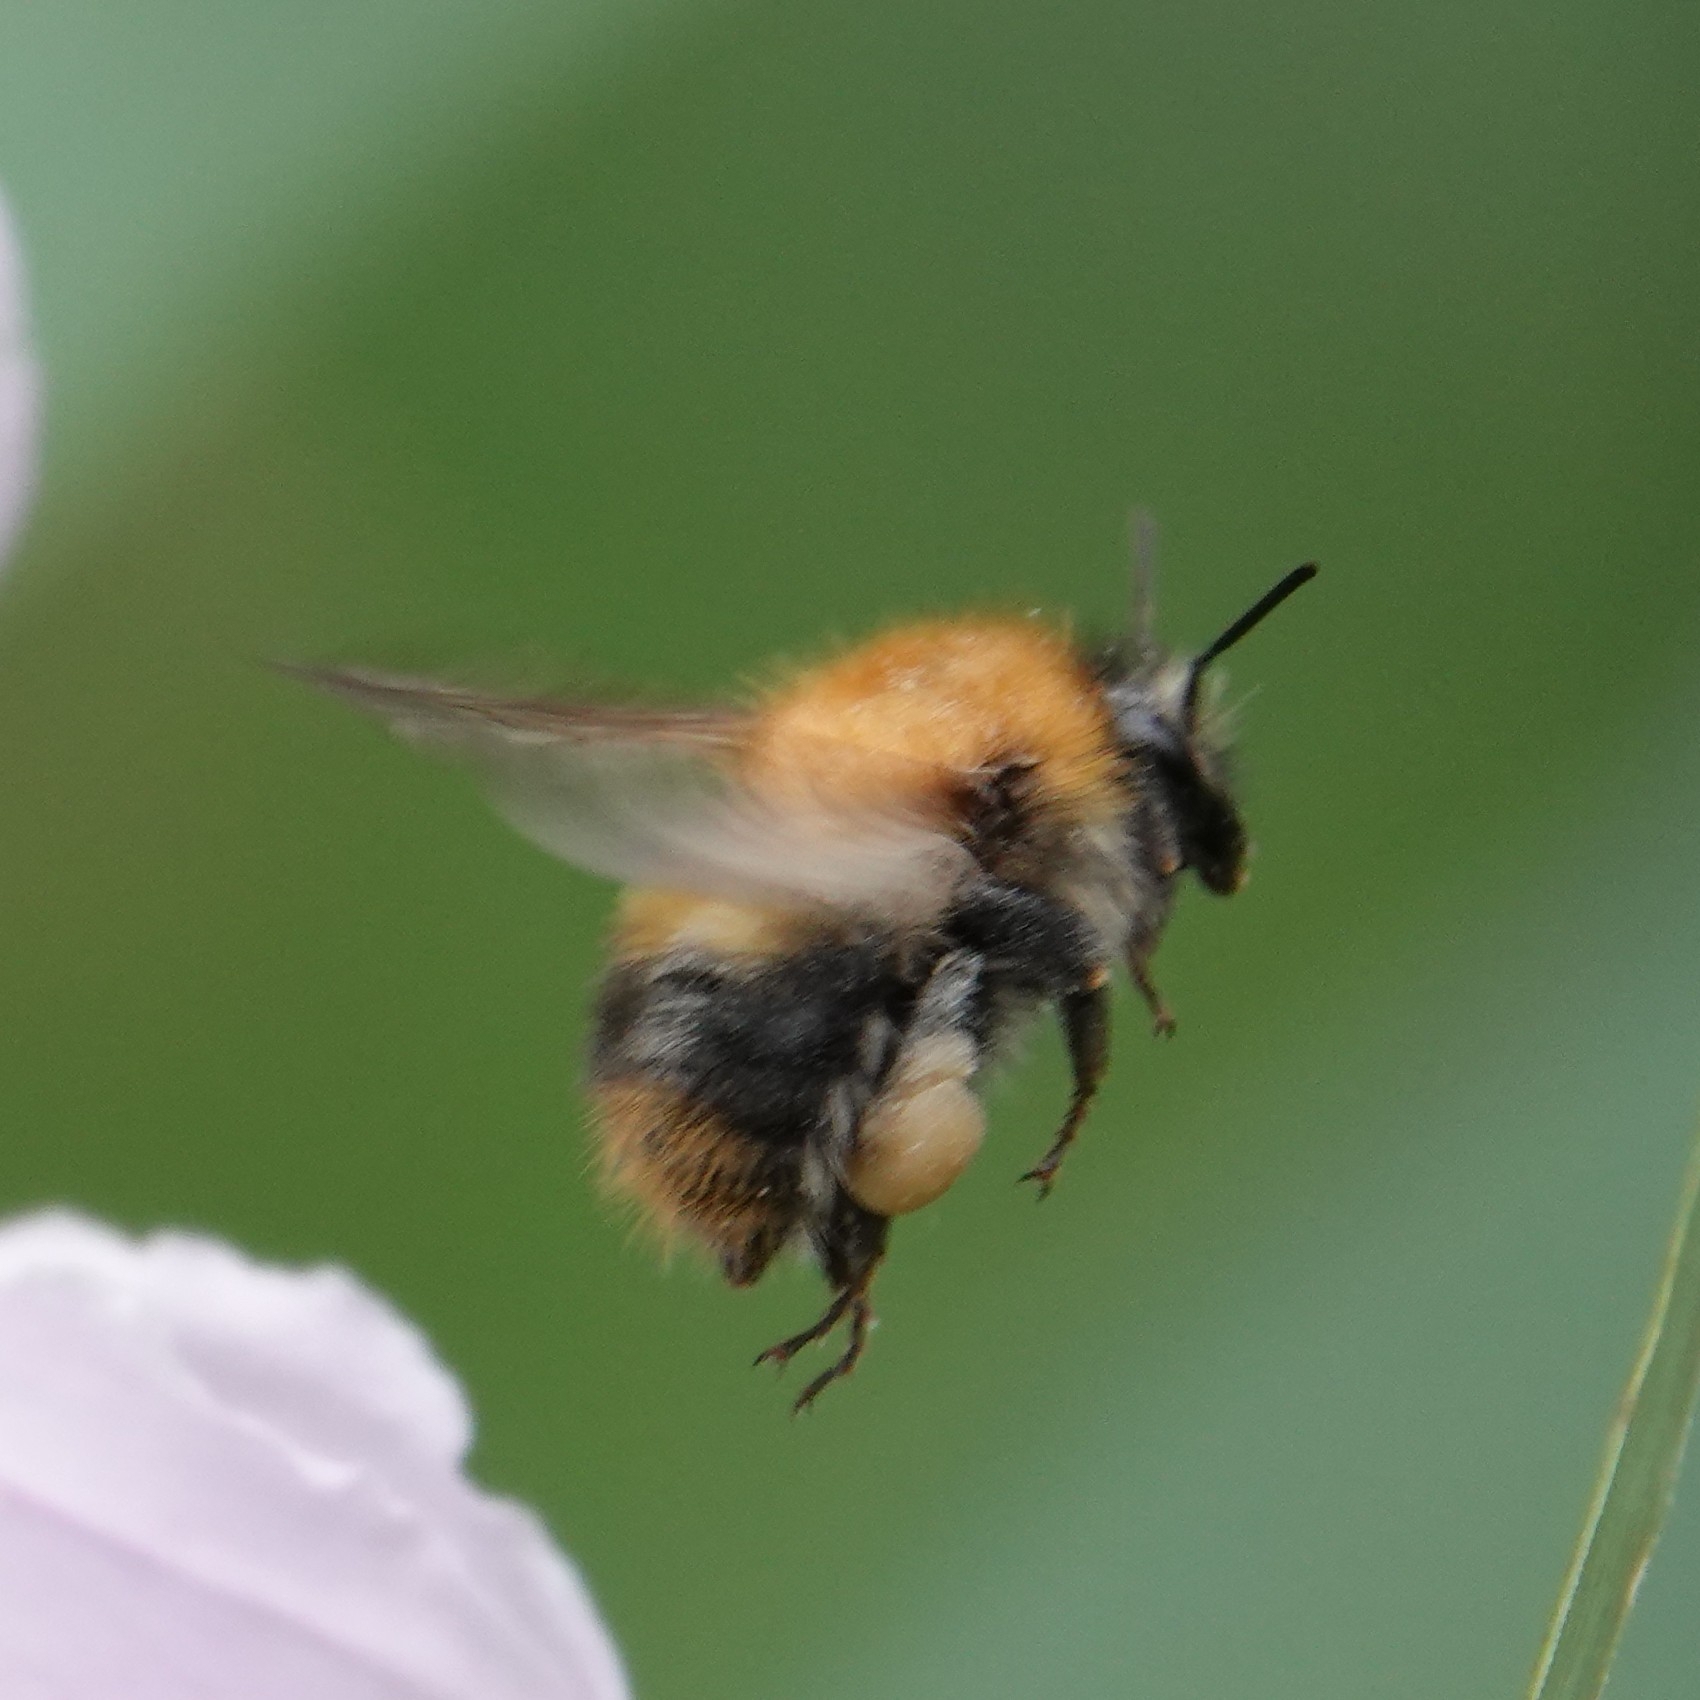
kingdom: Animalia
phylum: Arthropoda
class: Insecta
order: Hymenoptera
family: Apidae
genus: Bombus
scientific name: Bombus pascuorum
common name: Common carder bee
